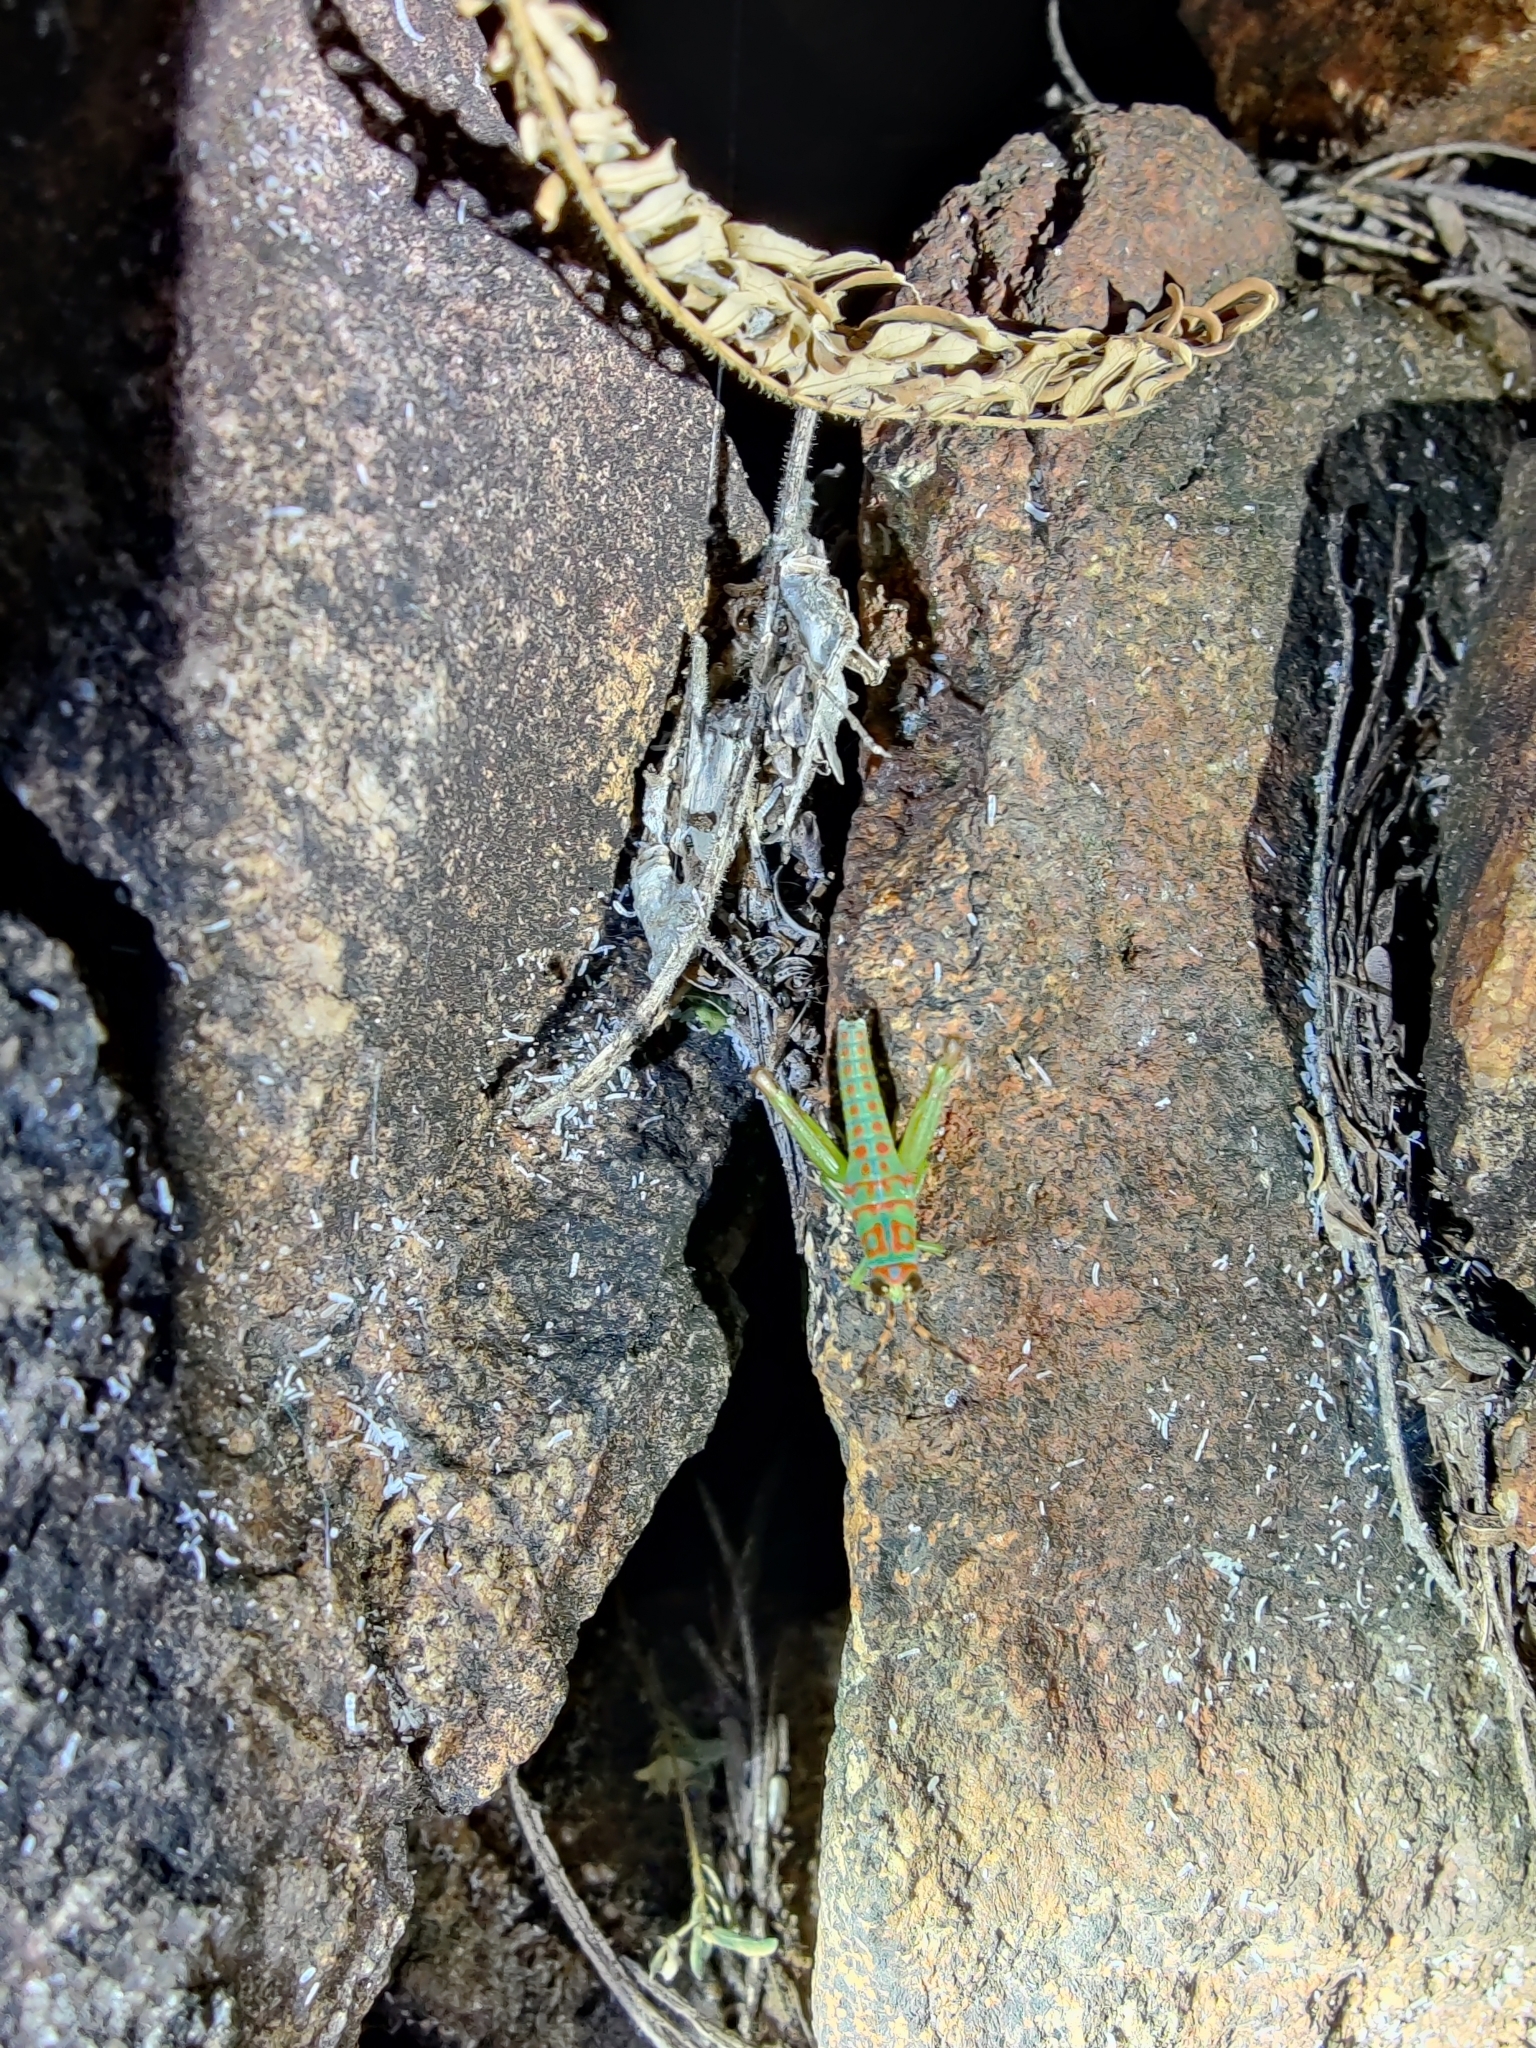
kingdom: Animalia
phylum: Arthropoda
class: Insecta
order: Orthoptera
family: Acrididae
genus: Pirithoicus
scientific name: Pirithoicus ophthalmicus
